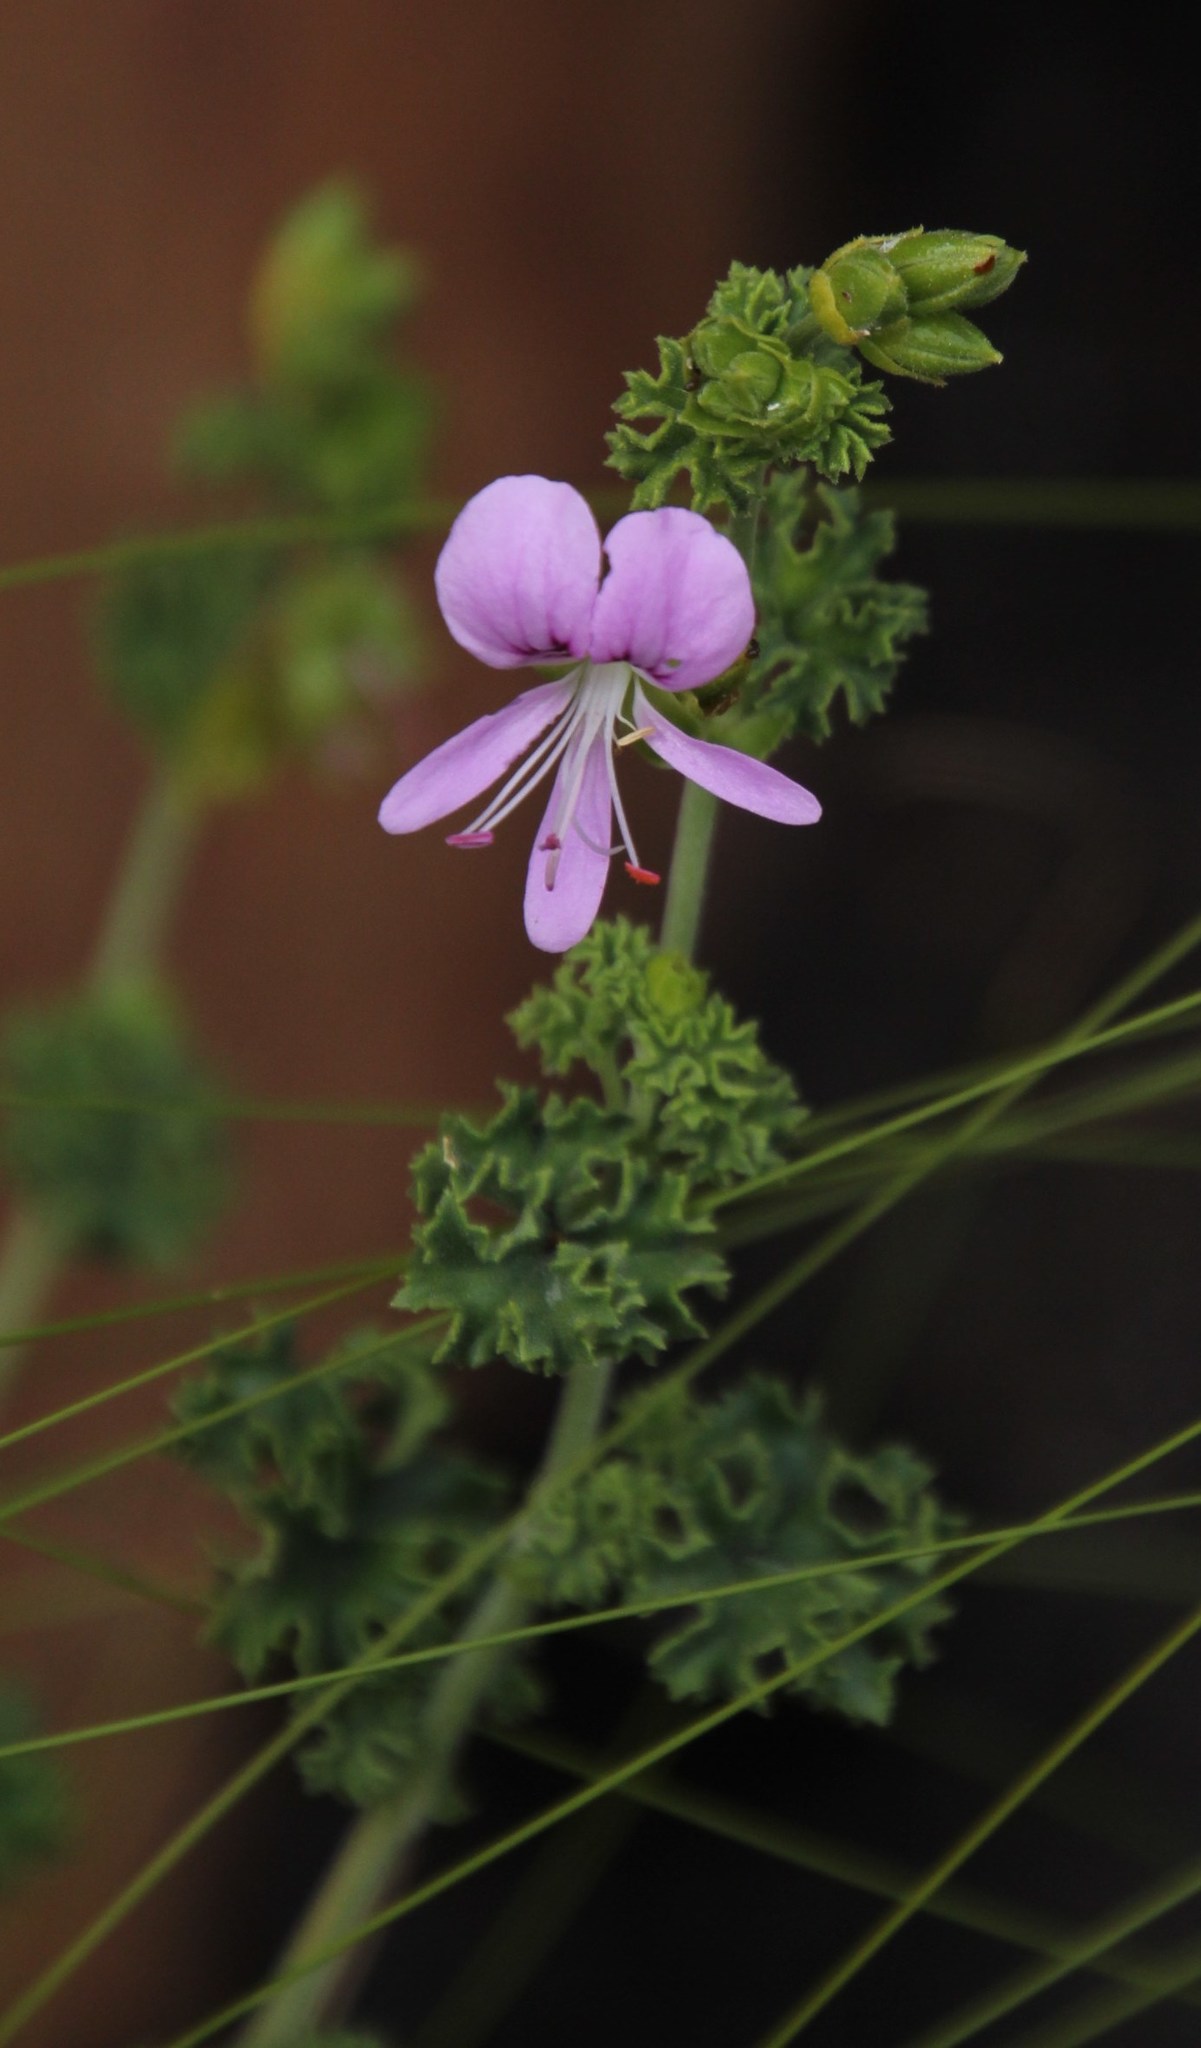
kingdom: Plantae
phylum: Tracheophyta
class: Magnoliopsida
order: Geraniales
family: Geraniaceae
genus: Pelargonium
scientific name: Pelargonium englerianum
